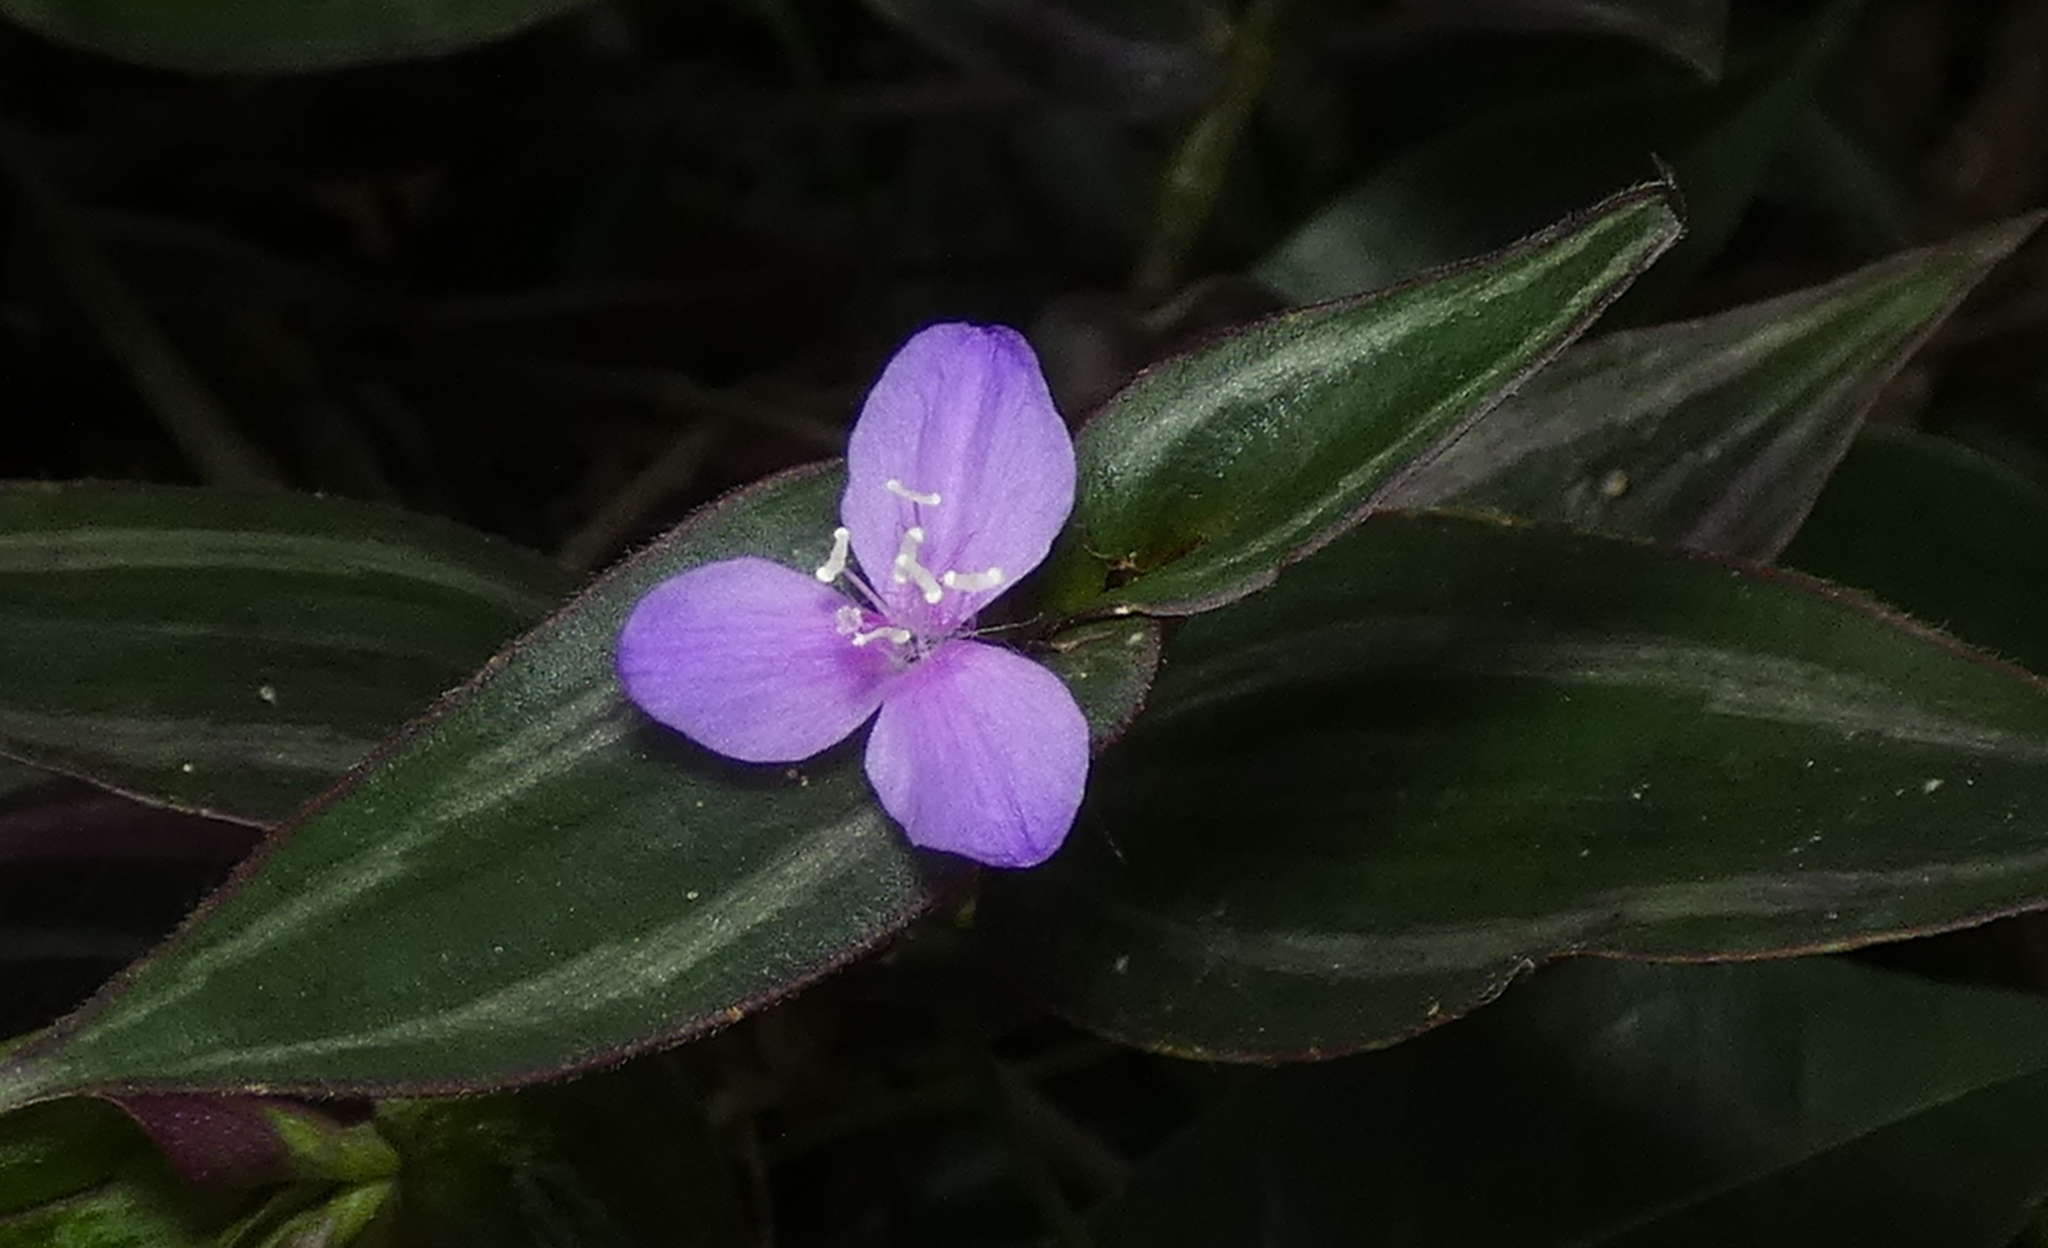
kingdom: Plantae
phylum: Tracheophyta
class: Liliopsida
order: Commelinales
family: Commelinaceae
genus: Tradescantia
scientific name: Tradescantia zebrina
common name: Inchplant
